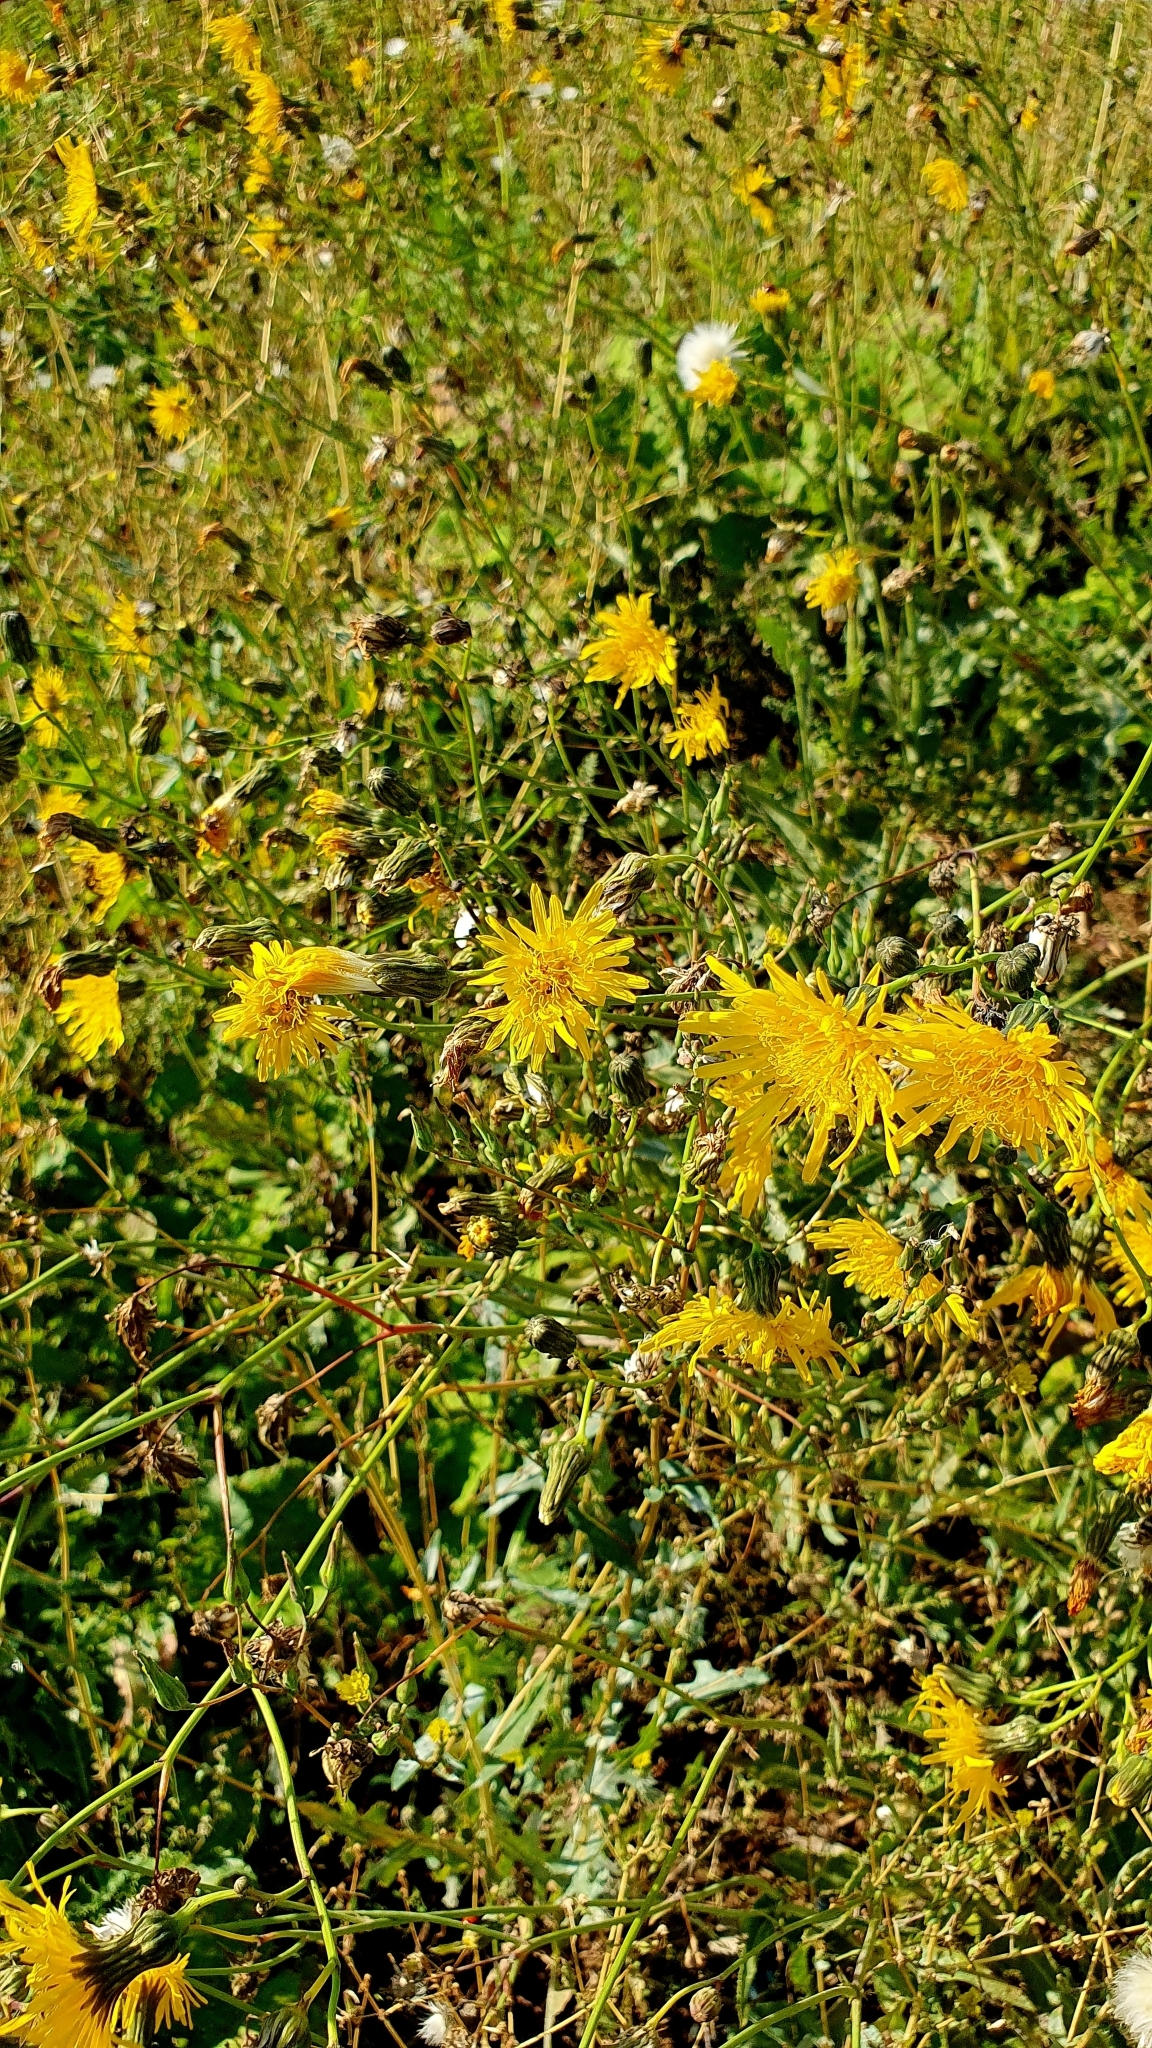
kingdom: Plantae
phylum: Tracheophyta
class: Magnoliopsida
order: Asterales
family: Asteraceae
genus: Sonchus
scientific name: Sonchus arvensis
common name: Perennial sow-thistle
